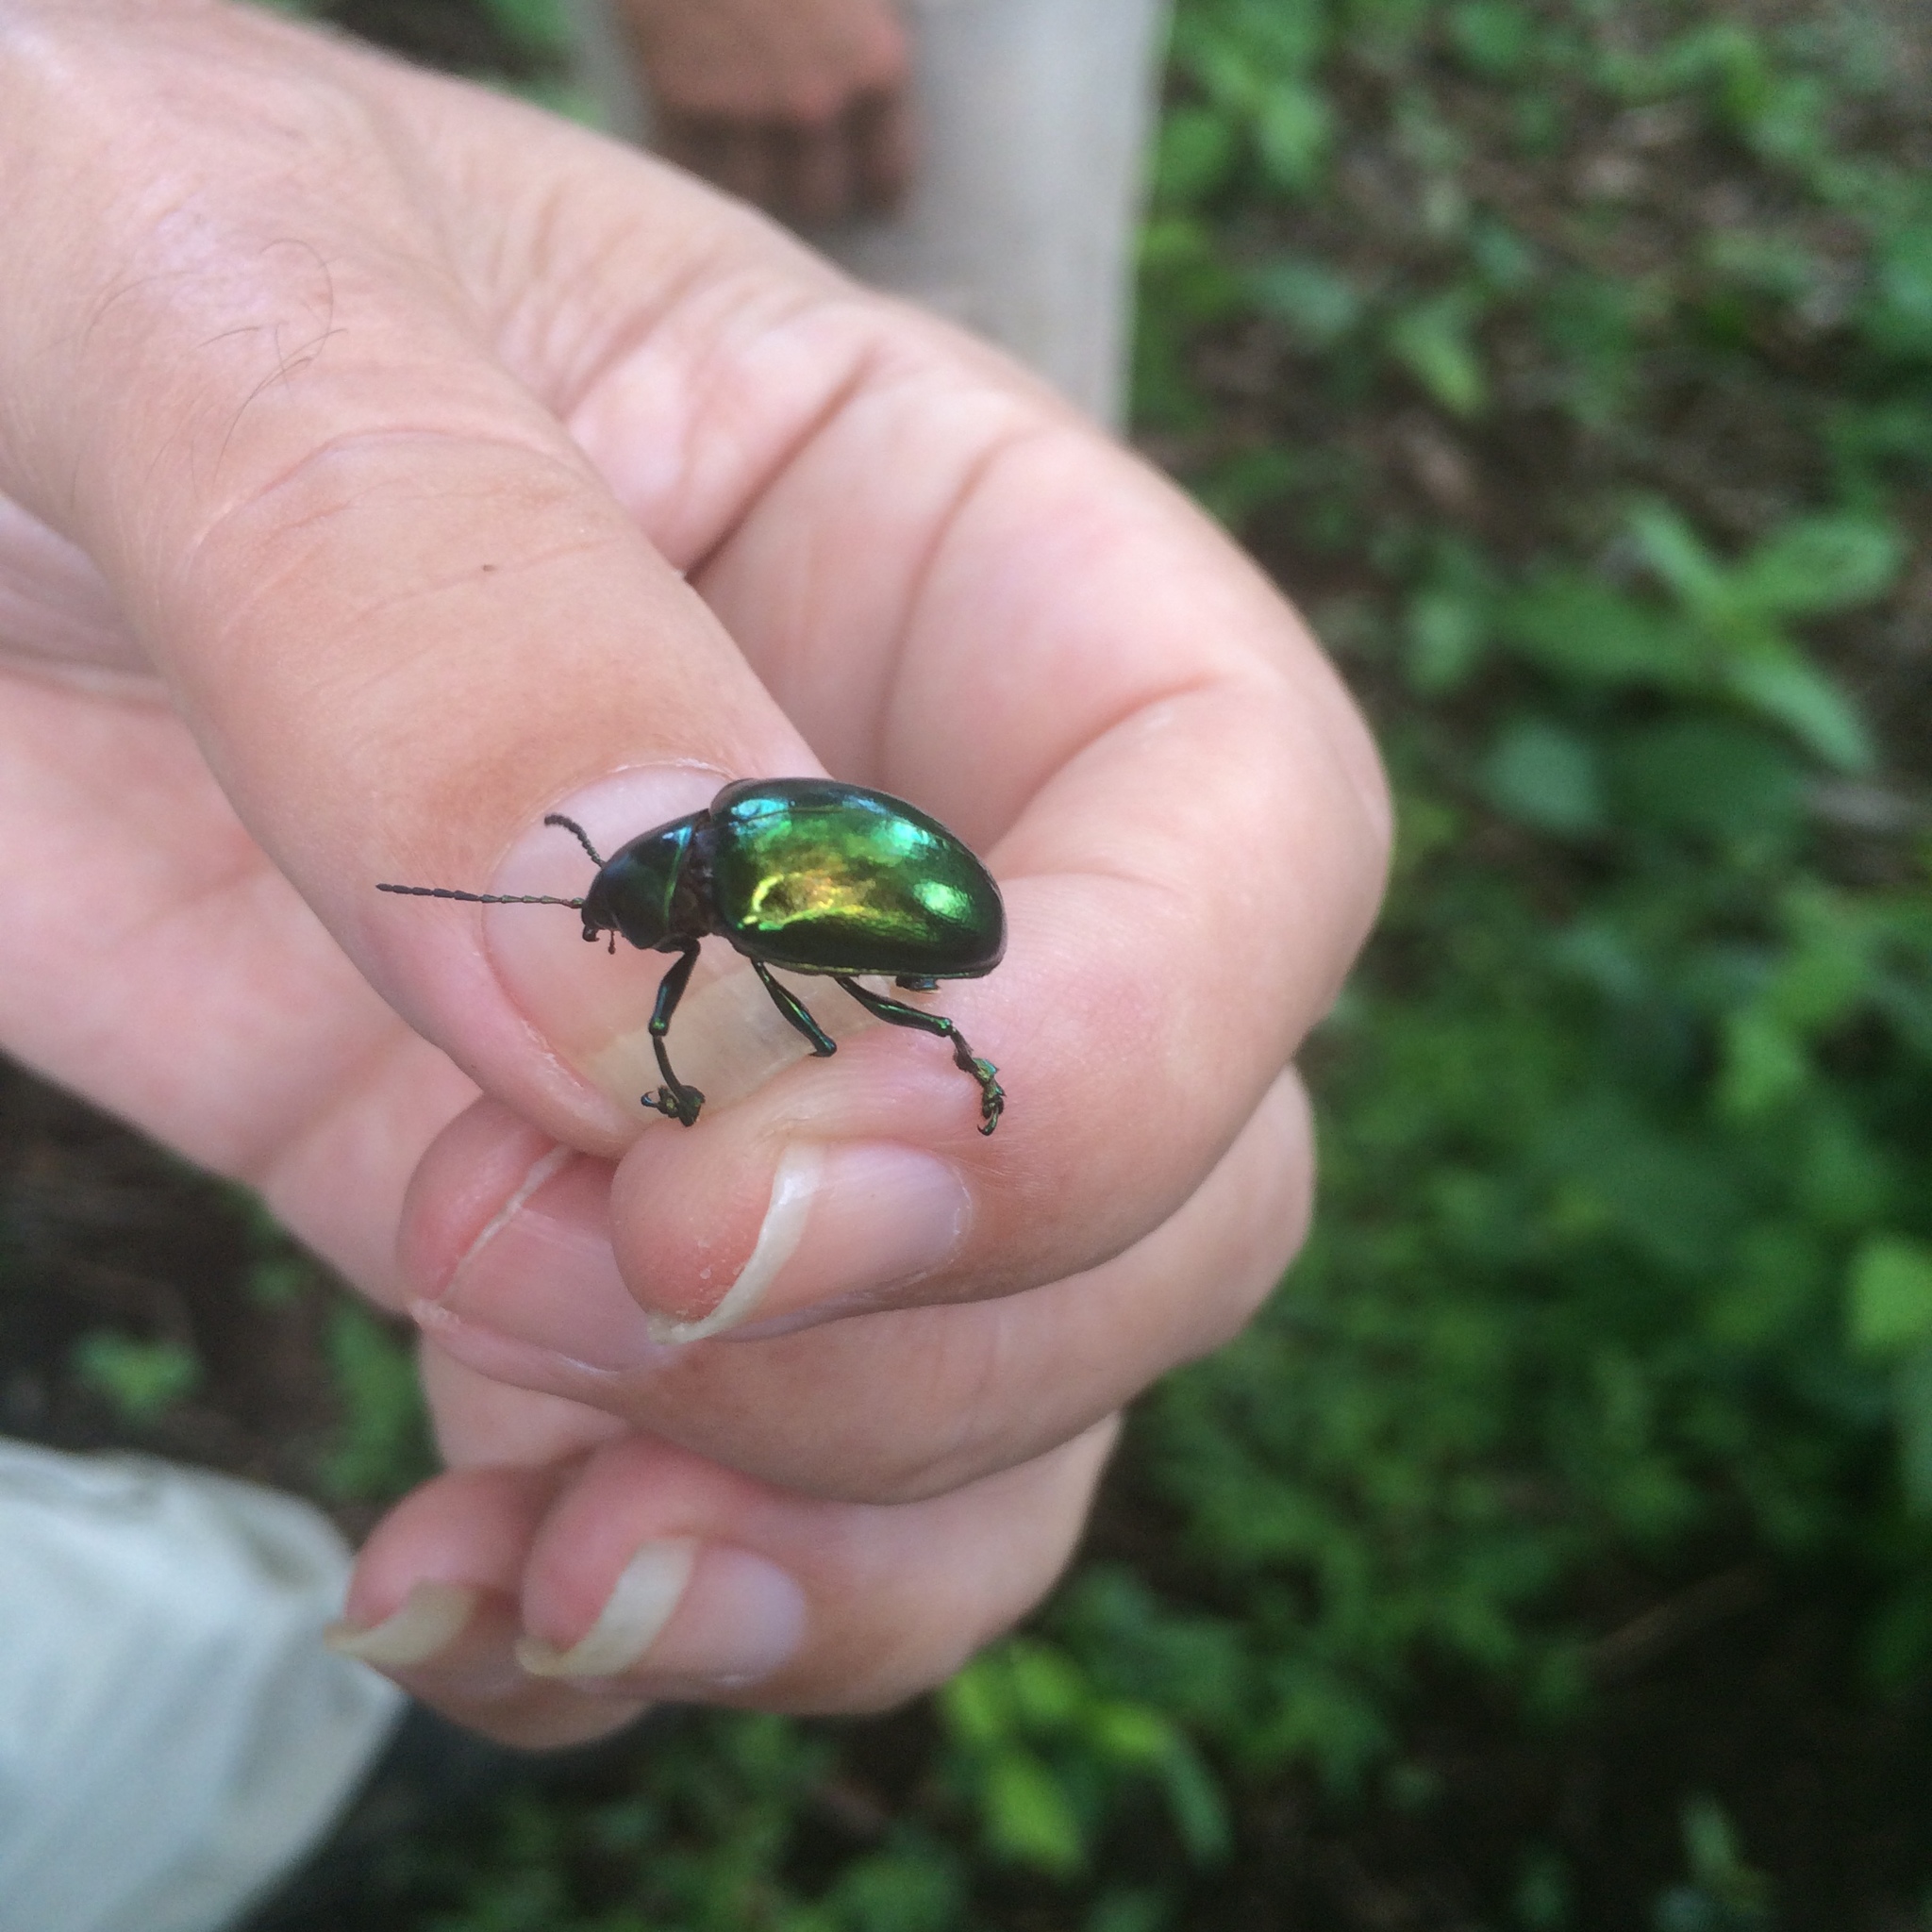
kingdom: Animalia
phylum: Arthropoda
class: Insecta
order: Coleoptera
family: Chrysomelidae
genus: Eumolpus
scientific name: Eumolpus robustus
